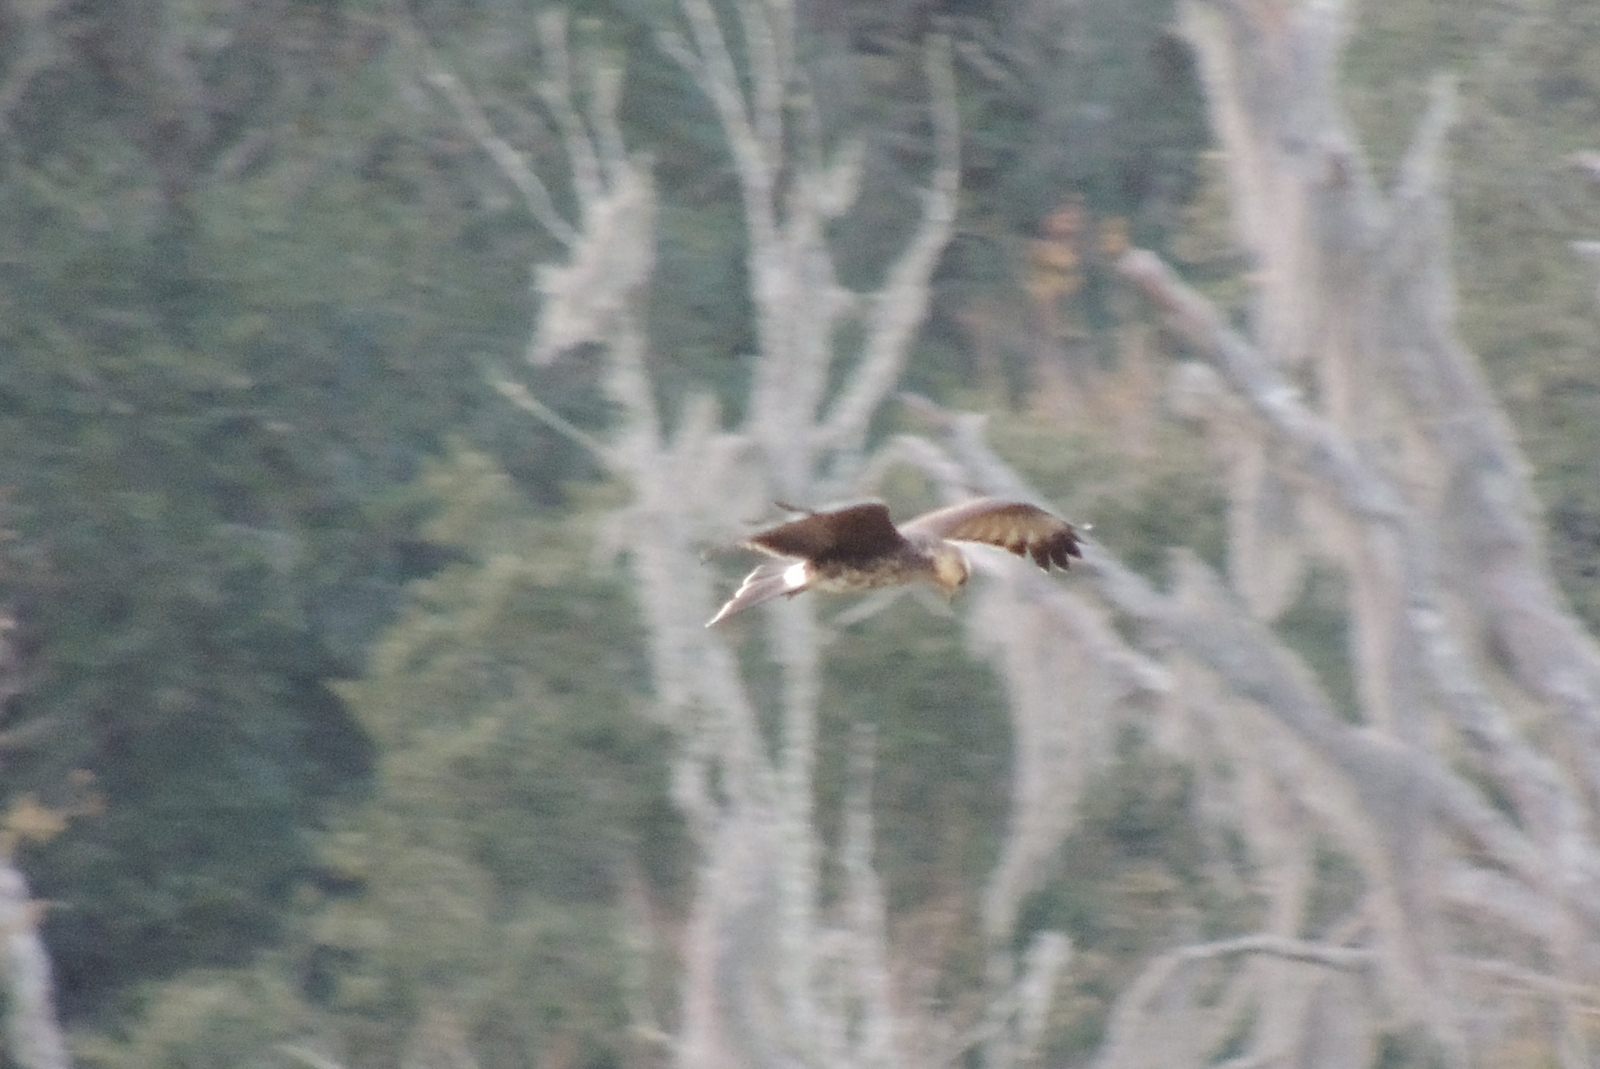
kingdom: Animalia
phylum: Chordata
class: Aves
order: Accipitriformes
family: Accipitridae
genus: Rostrhamus
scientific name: Rostrhamus sociabilis
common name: Snail kite
